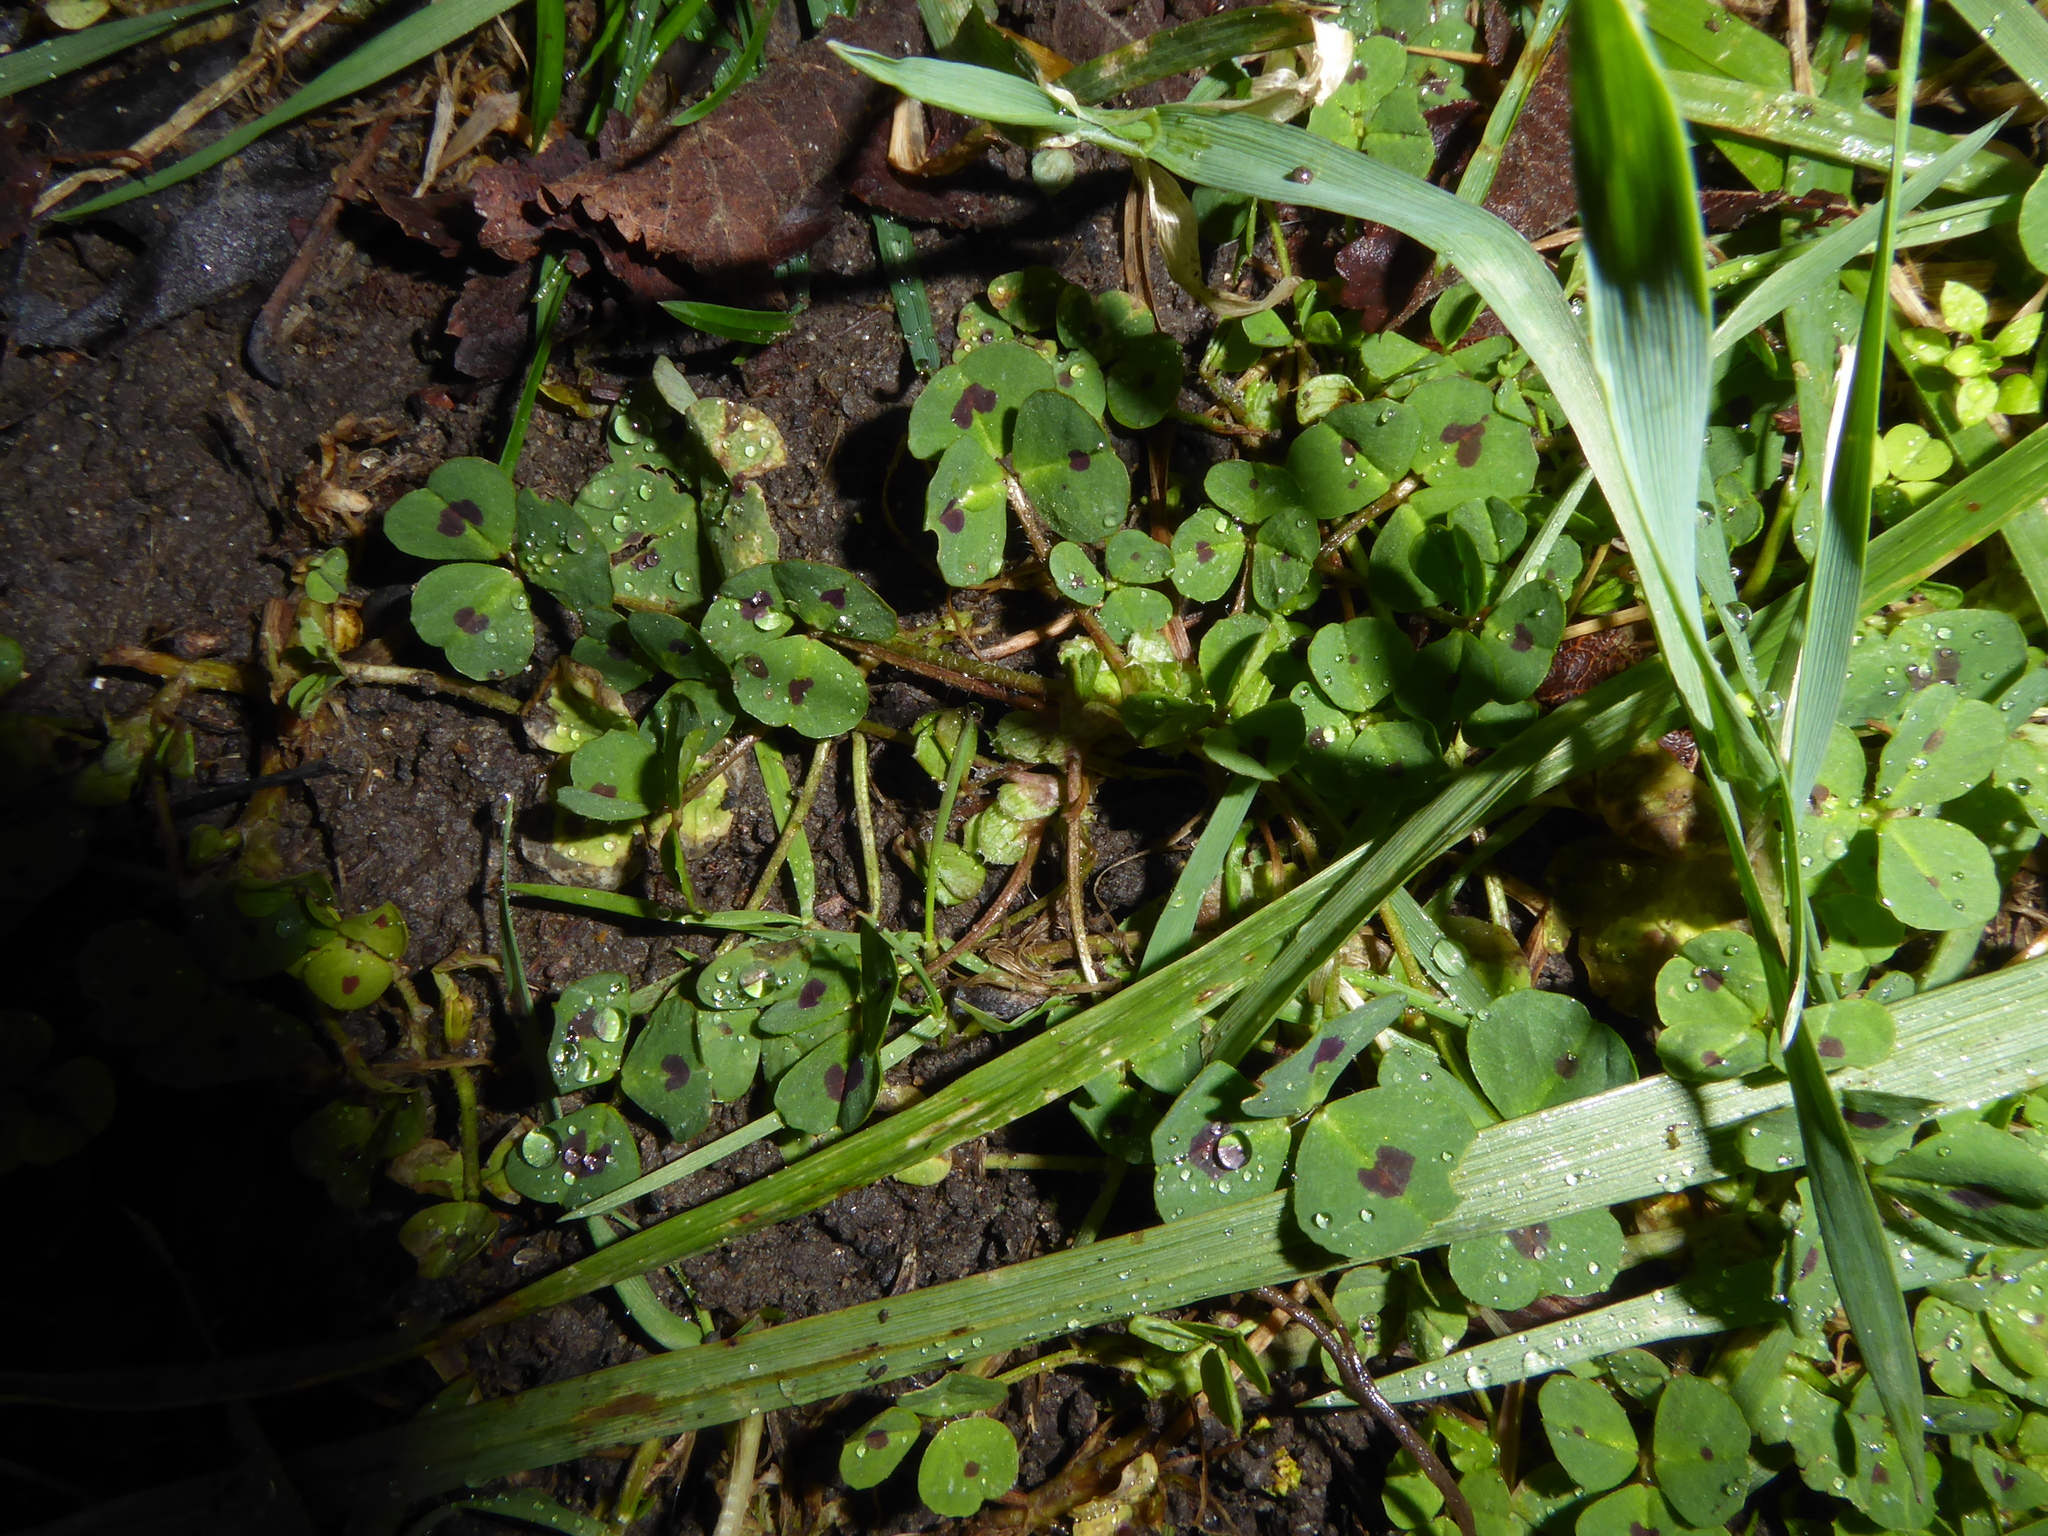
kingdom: Plantae
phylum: Tracheophyta
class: Magnoliopsida
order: Fabales
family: Fabaceae
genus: Medicago
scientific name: Medicago arabica
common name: Spotted medick
